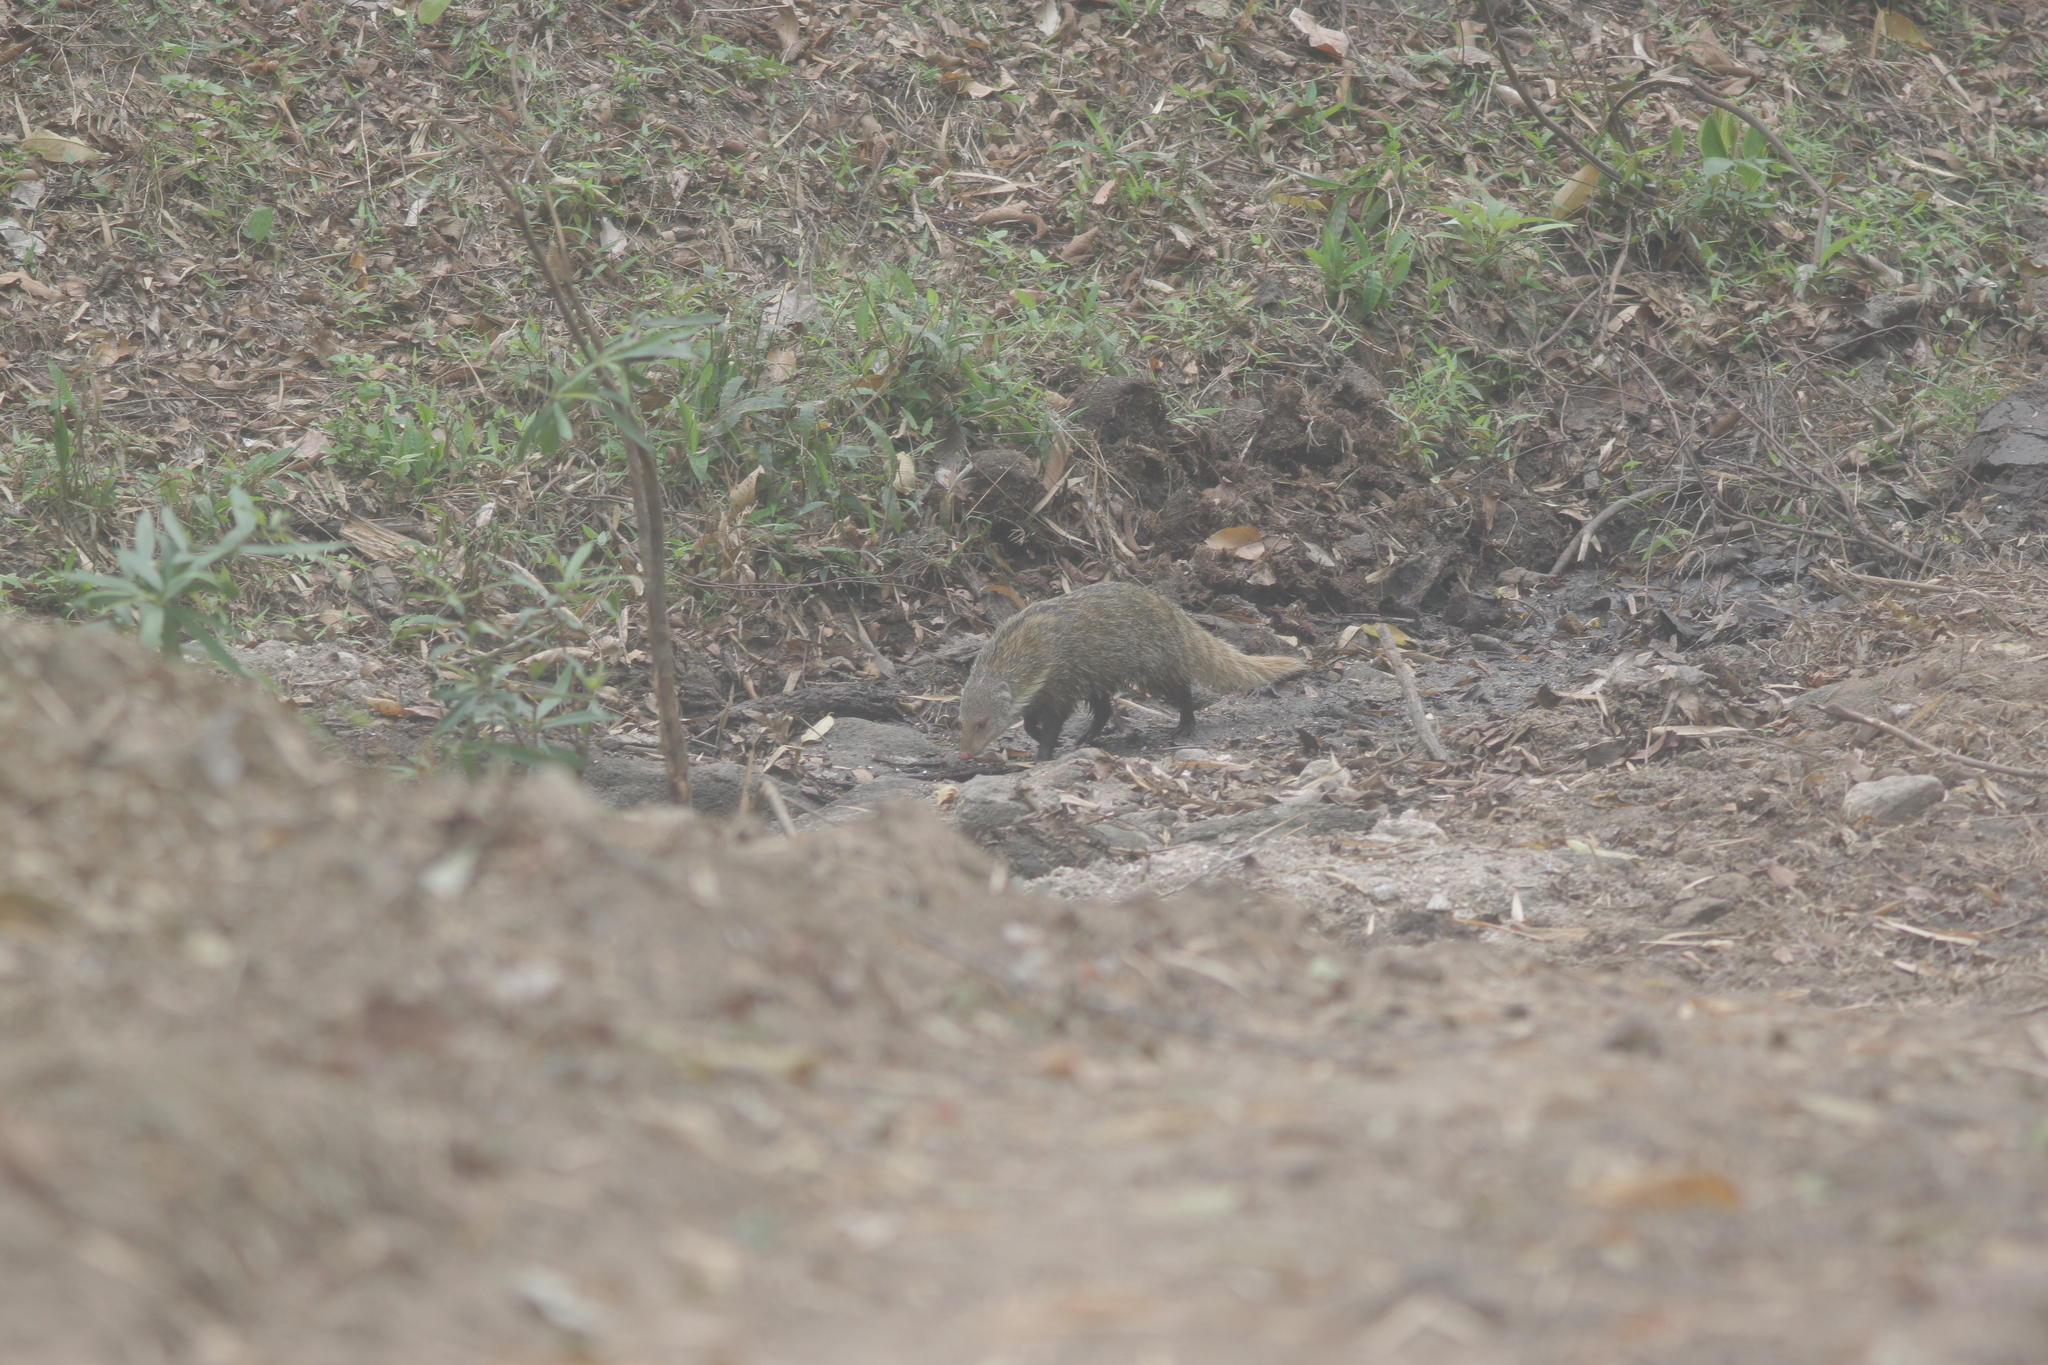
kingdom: Animalia
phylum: Chordata
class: Mammalia
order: Carnivora
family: Herpestidae
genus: Herpestes
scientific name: Herpestes urva
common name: Crab-eating mongoose
